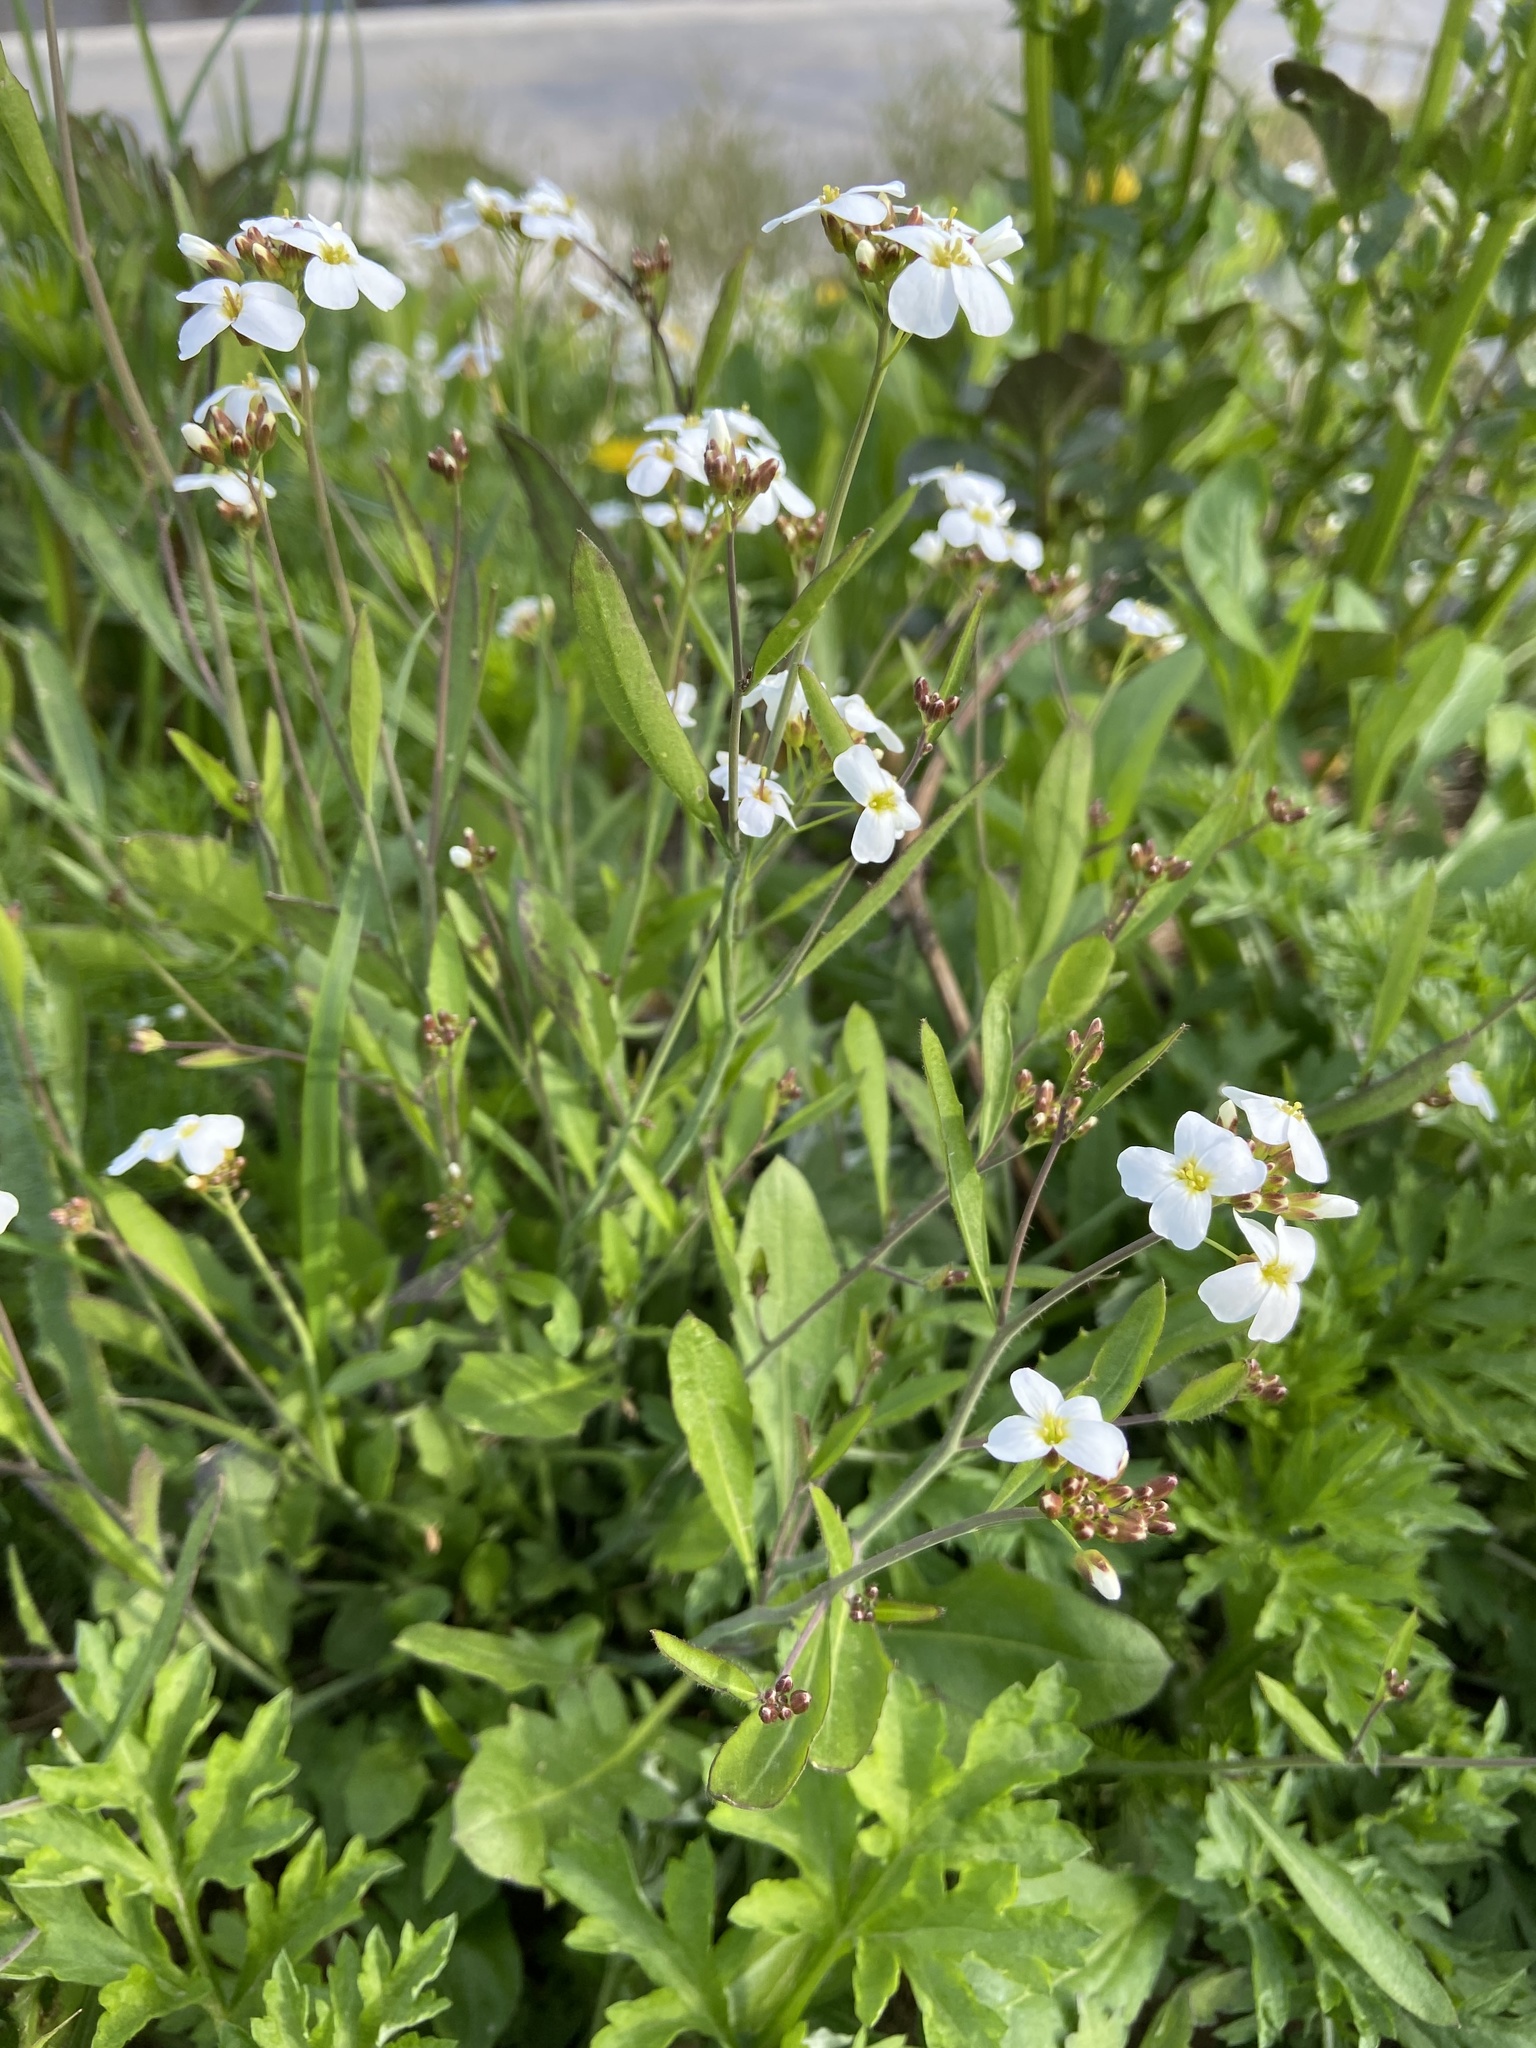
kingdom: Plantae
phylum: Tracheophyta
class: Magnoliopsida
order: Brassicales
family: Brassicaceae
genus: Arabidopsis
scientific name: Arabidopsis arenosa
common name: Sand rock-cress
